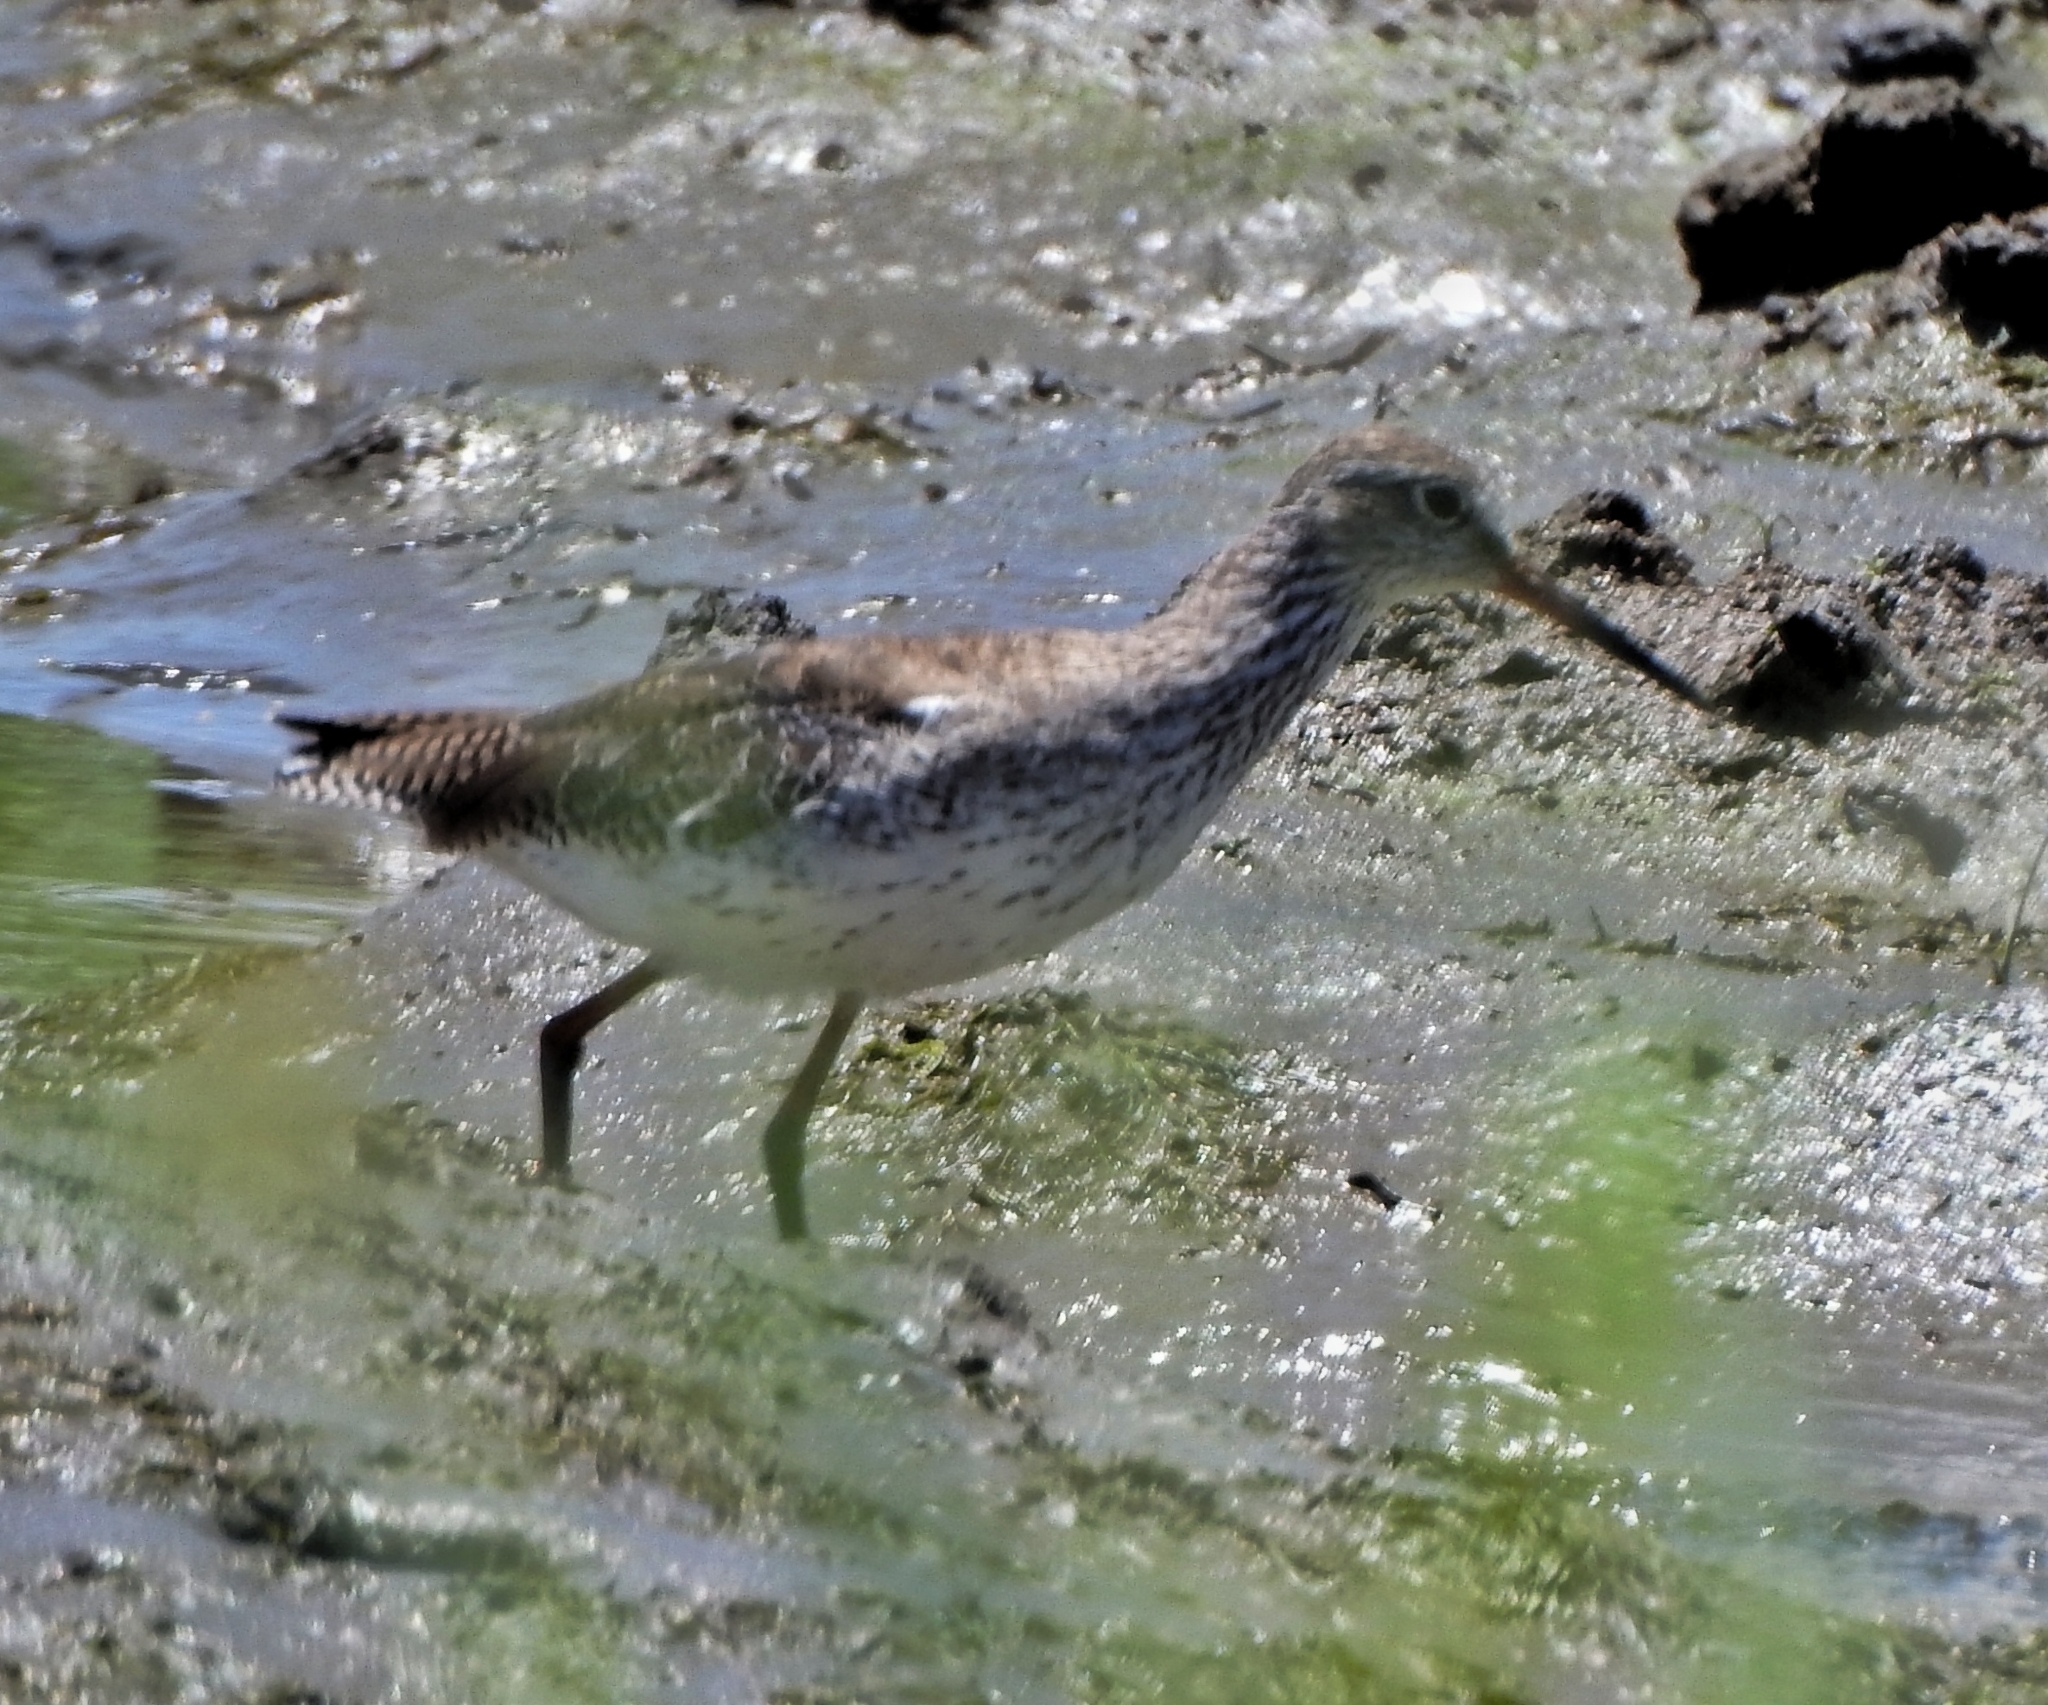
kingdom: Animalia
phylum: Chordata
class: Aves
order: Charadriiformes
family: Scolopacidae
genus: Tringa
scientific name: Tringa totanus
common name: Common redshank
